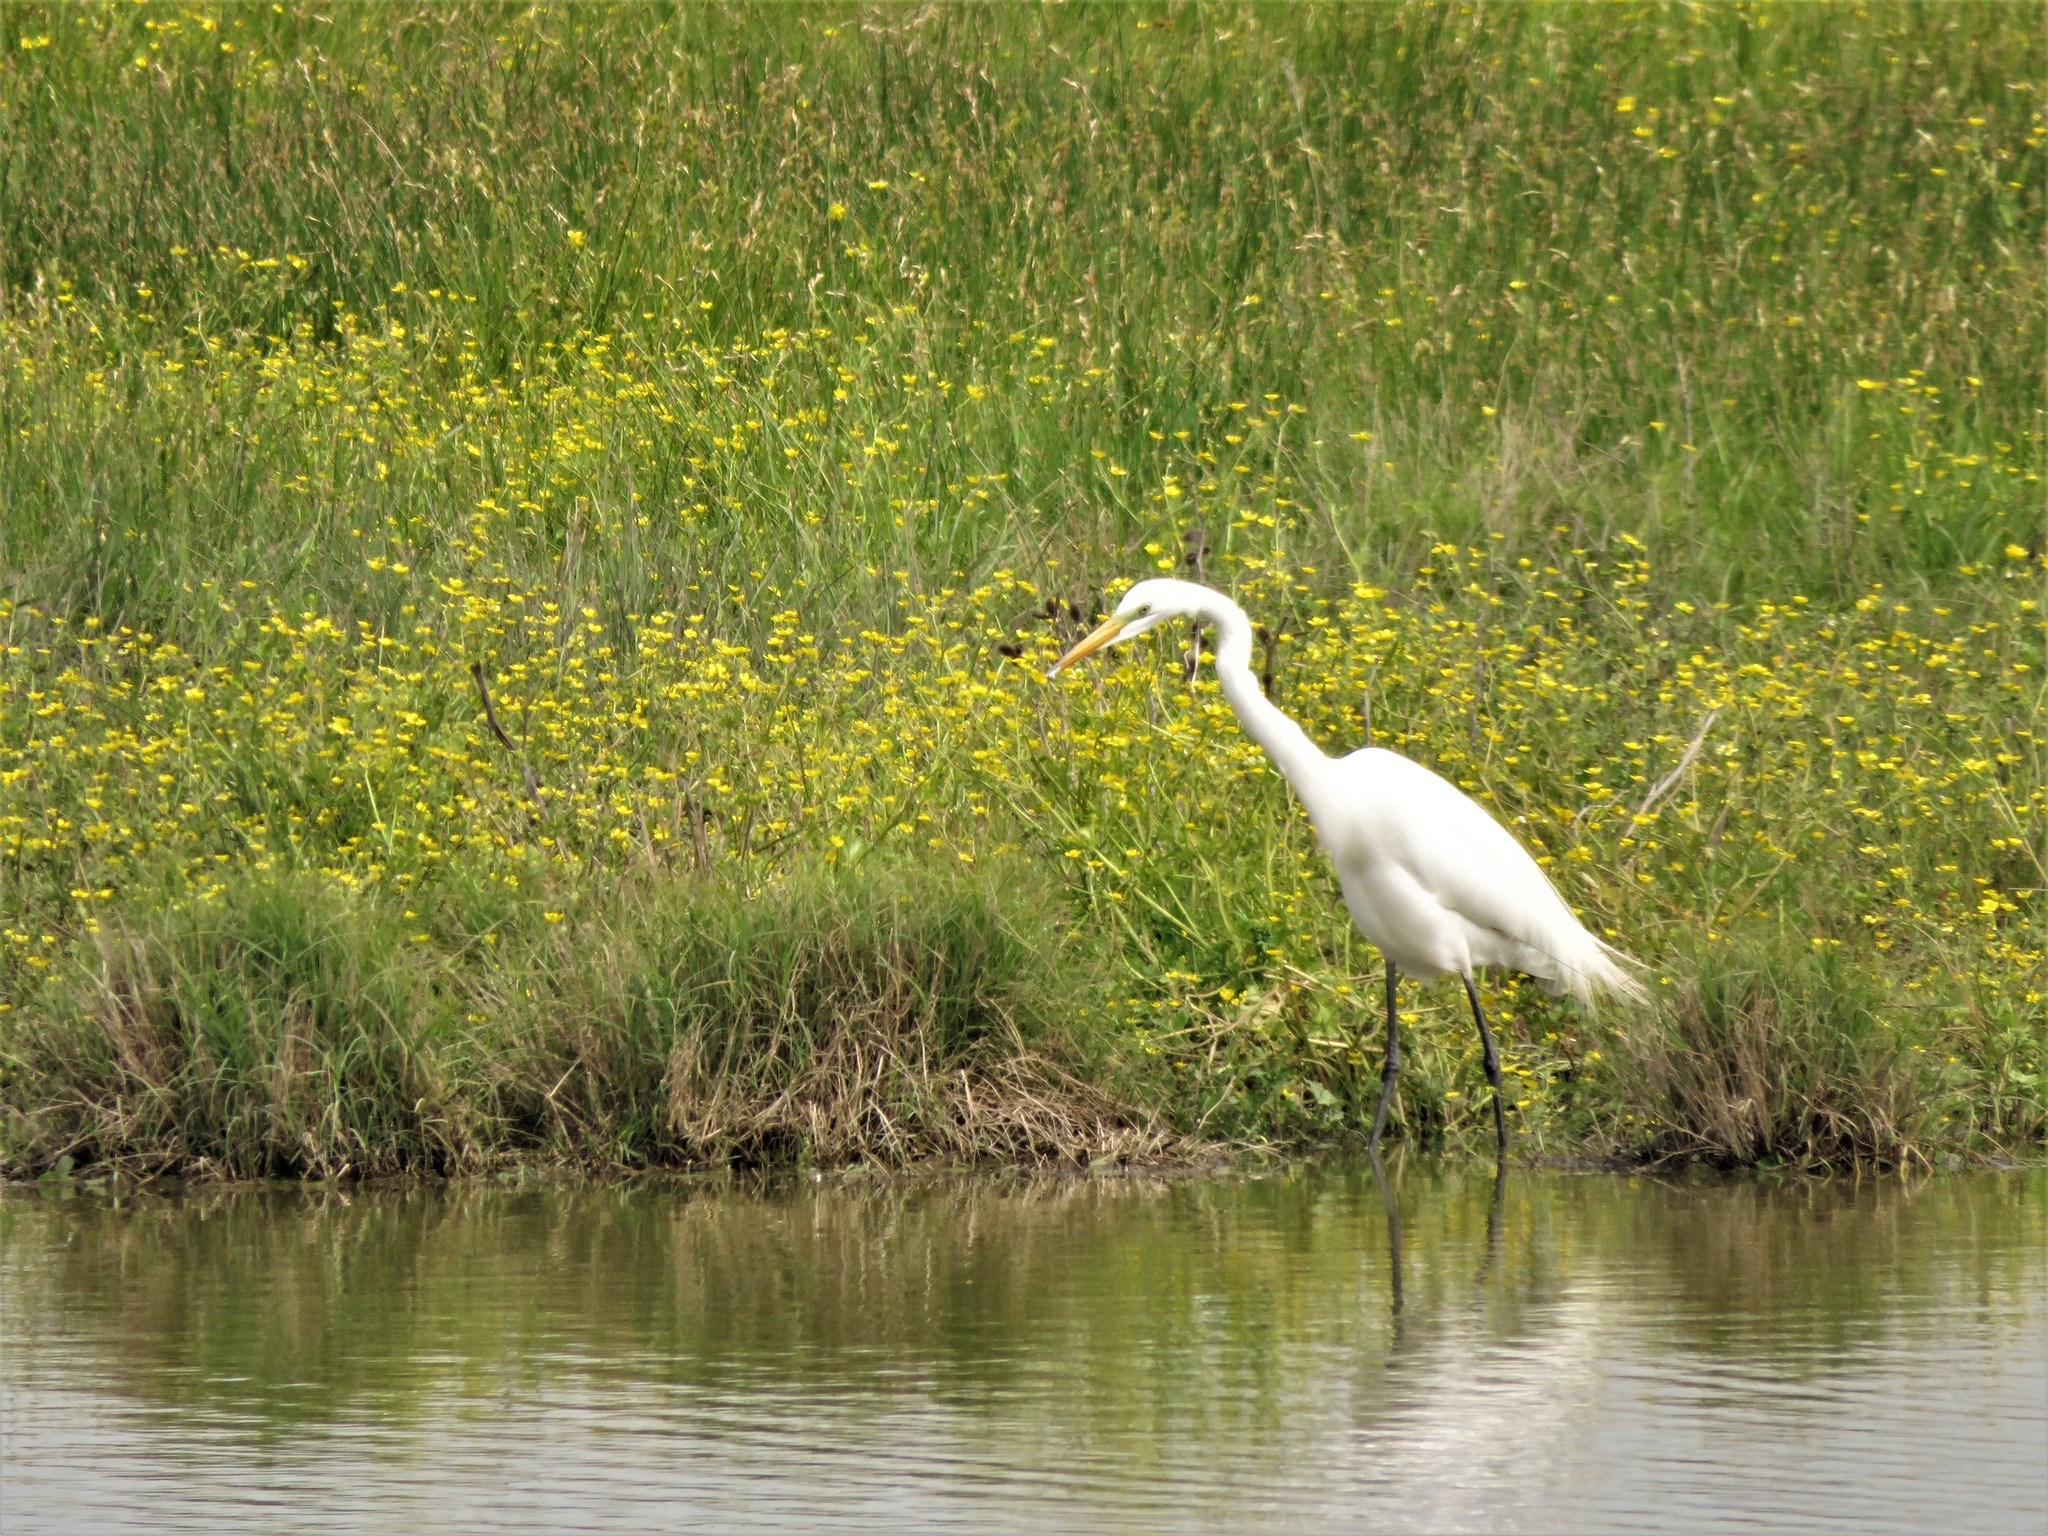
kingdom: Animalia
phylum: Chordata
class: Aves
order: Pelecaniformes
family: Ardeidae
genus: Ardea
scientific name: Ardea alba
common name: Great egret
